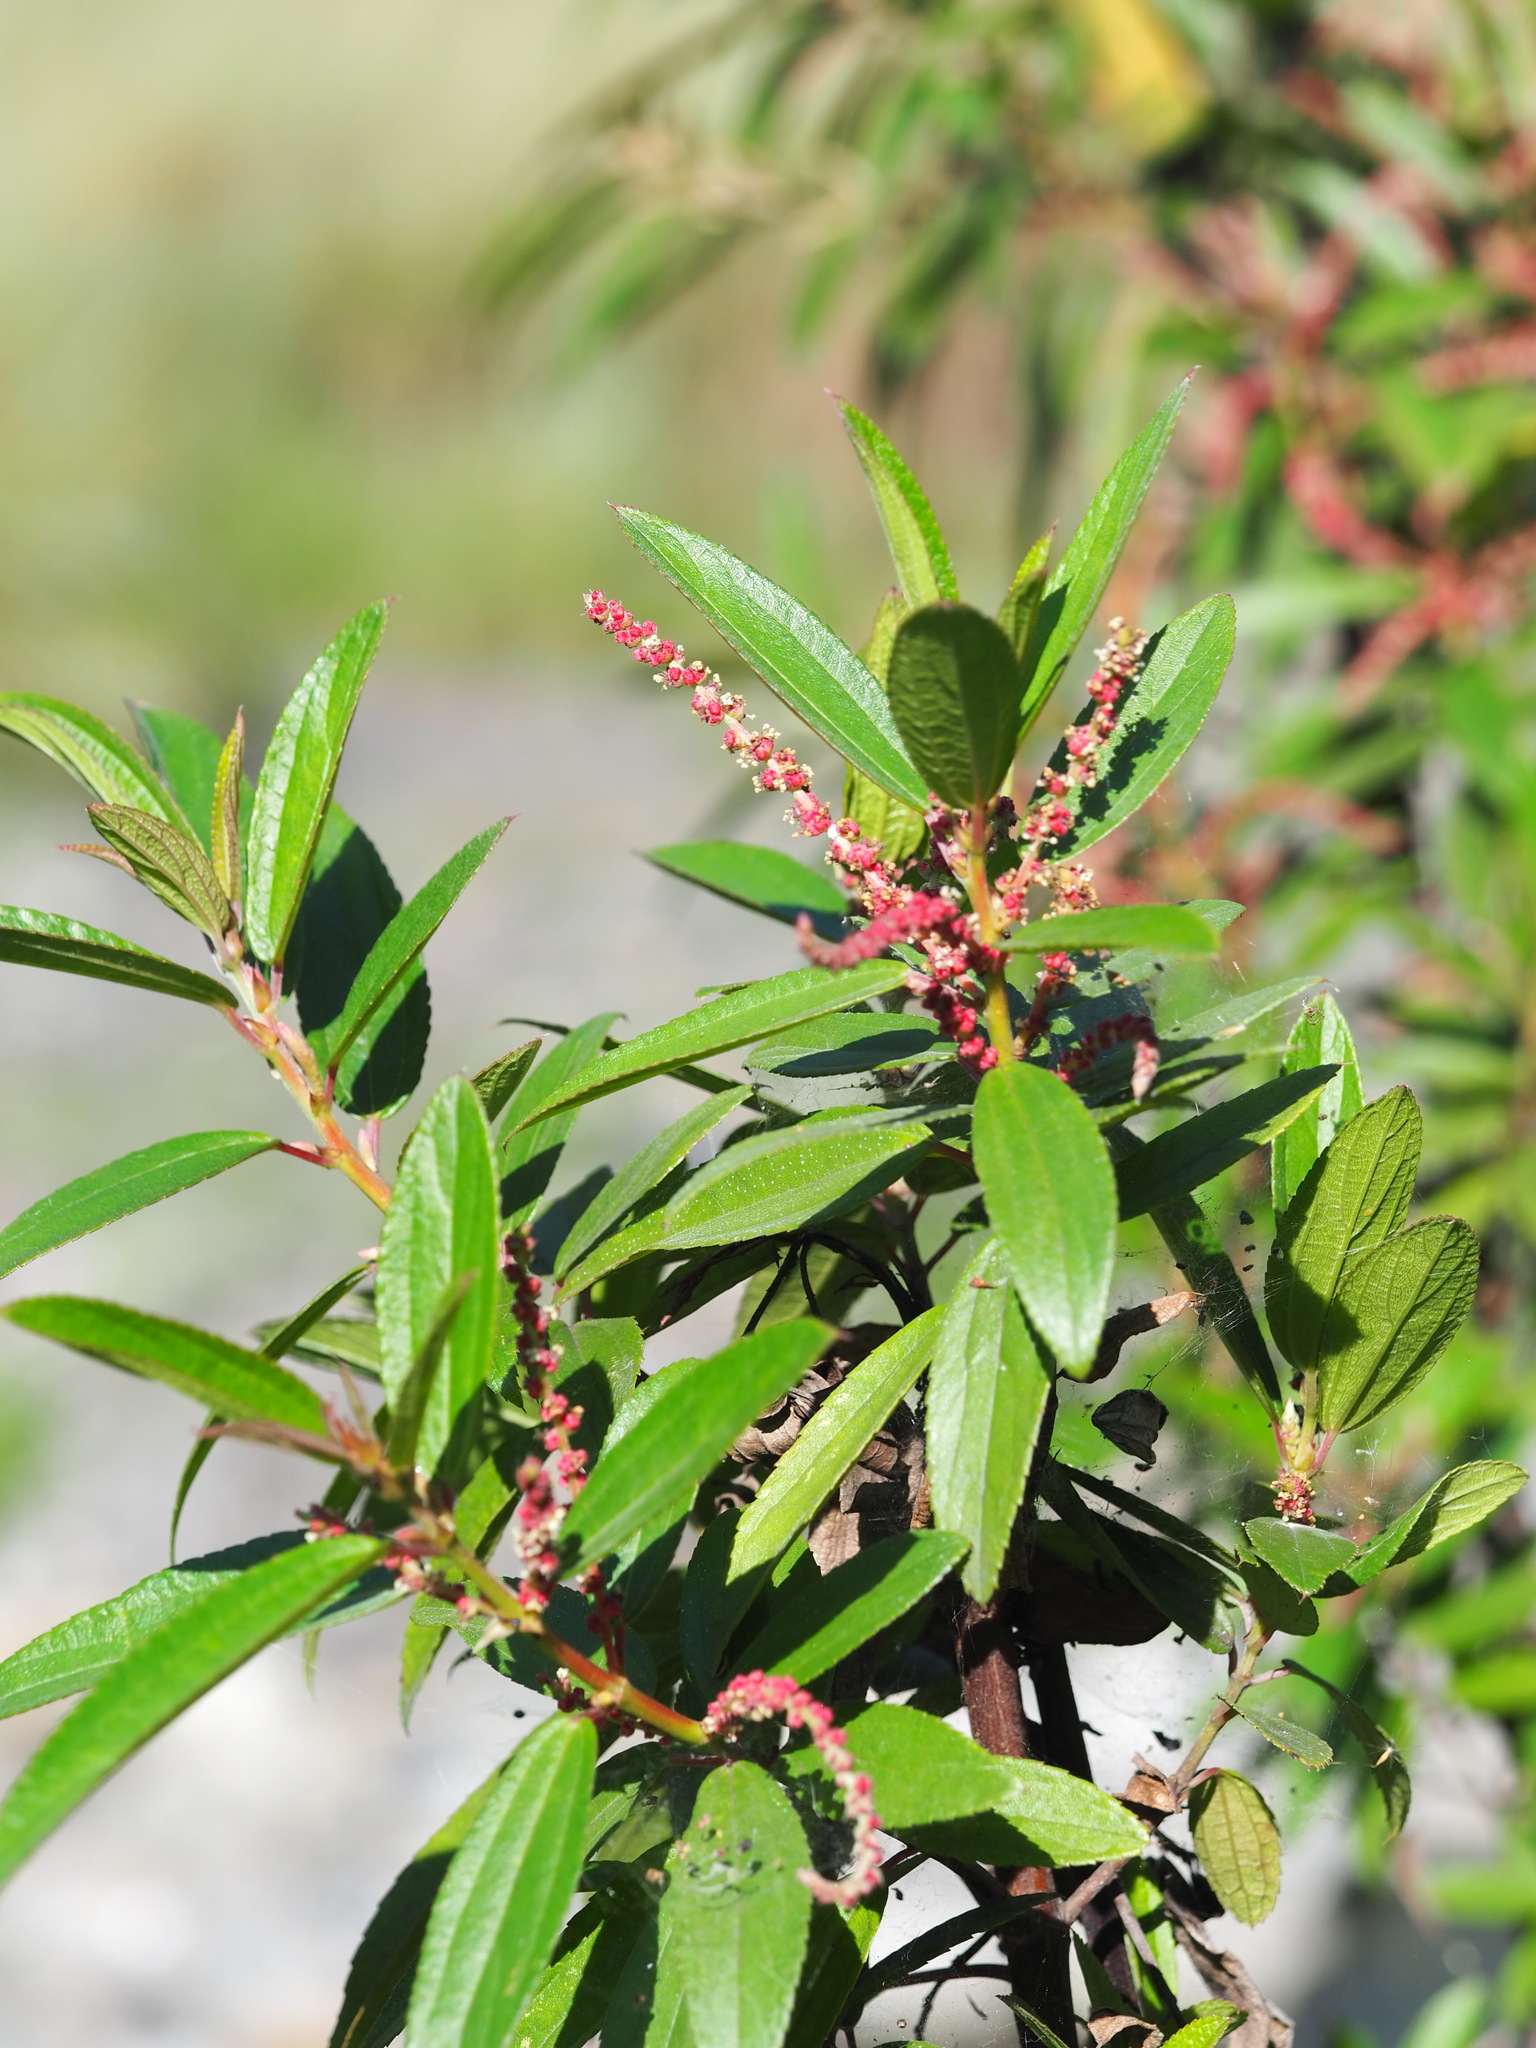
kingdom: Plantae
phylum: Tracheophyta
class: Magnoliopsida
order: Rosales
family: Urticaceae
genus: Boehmeria
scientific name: Boehmeria densiflora
